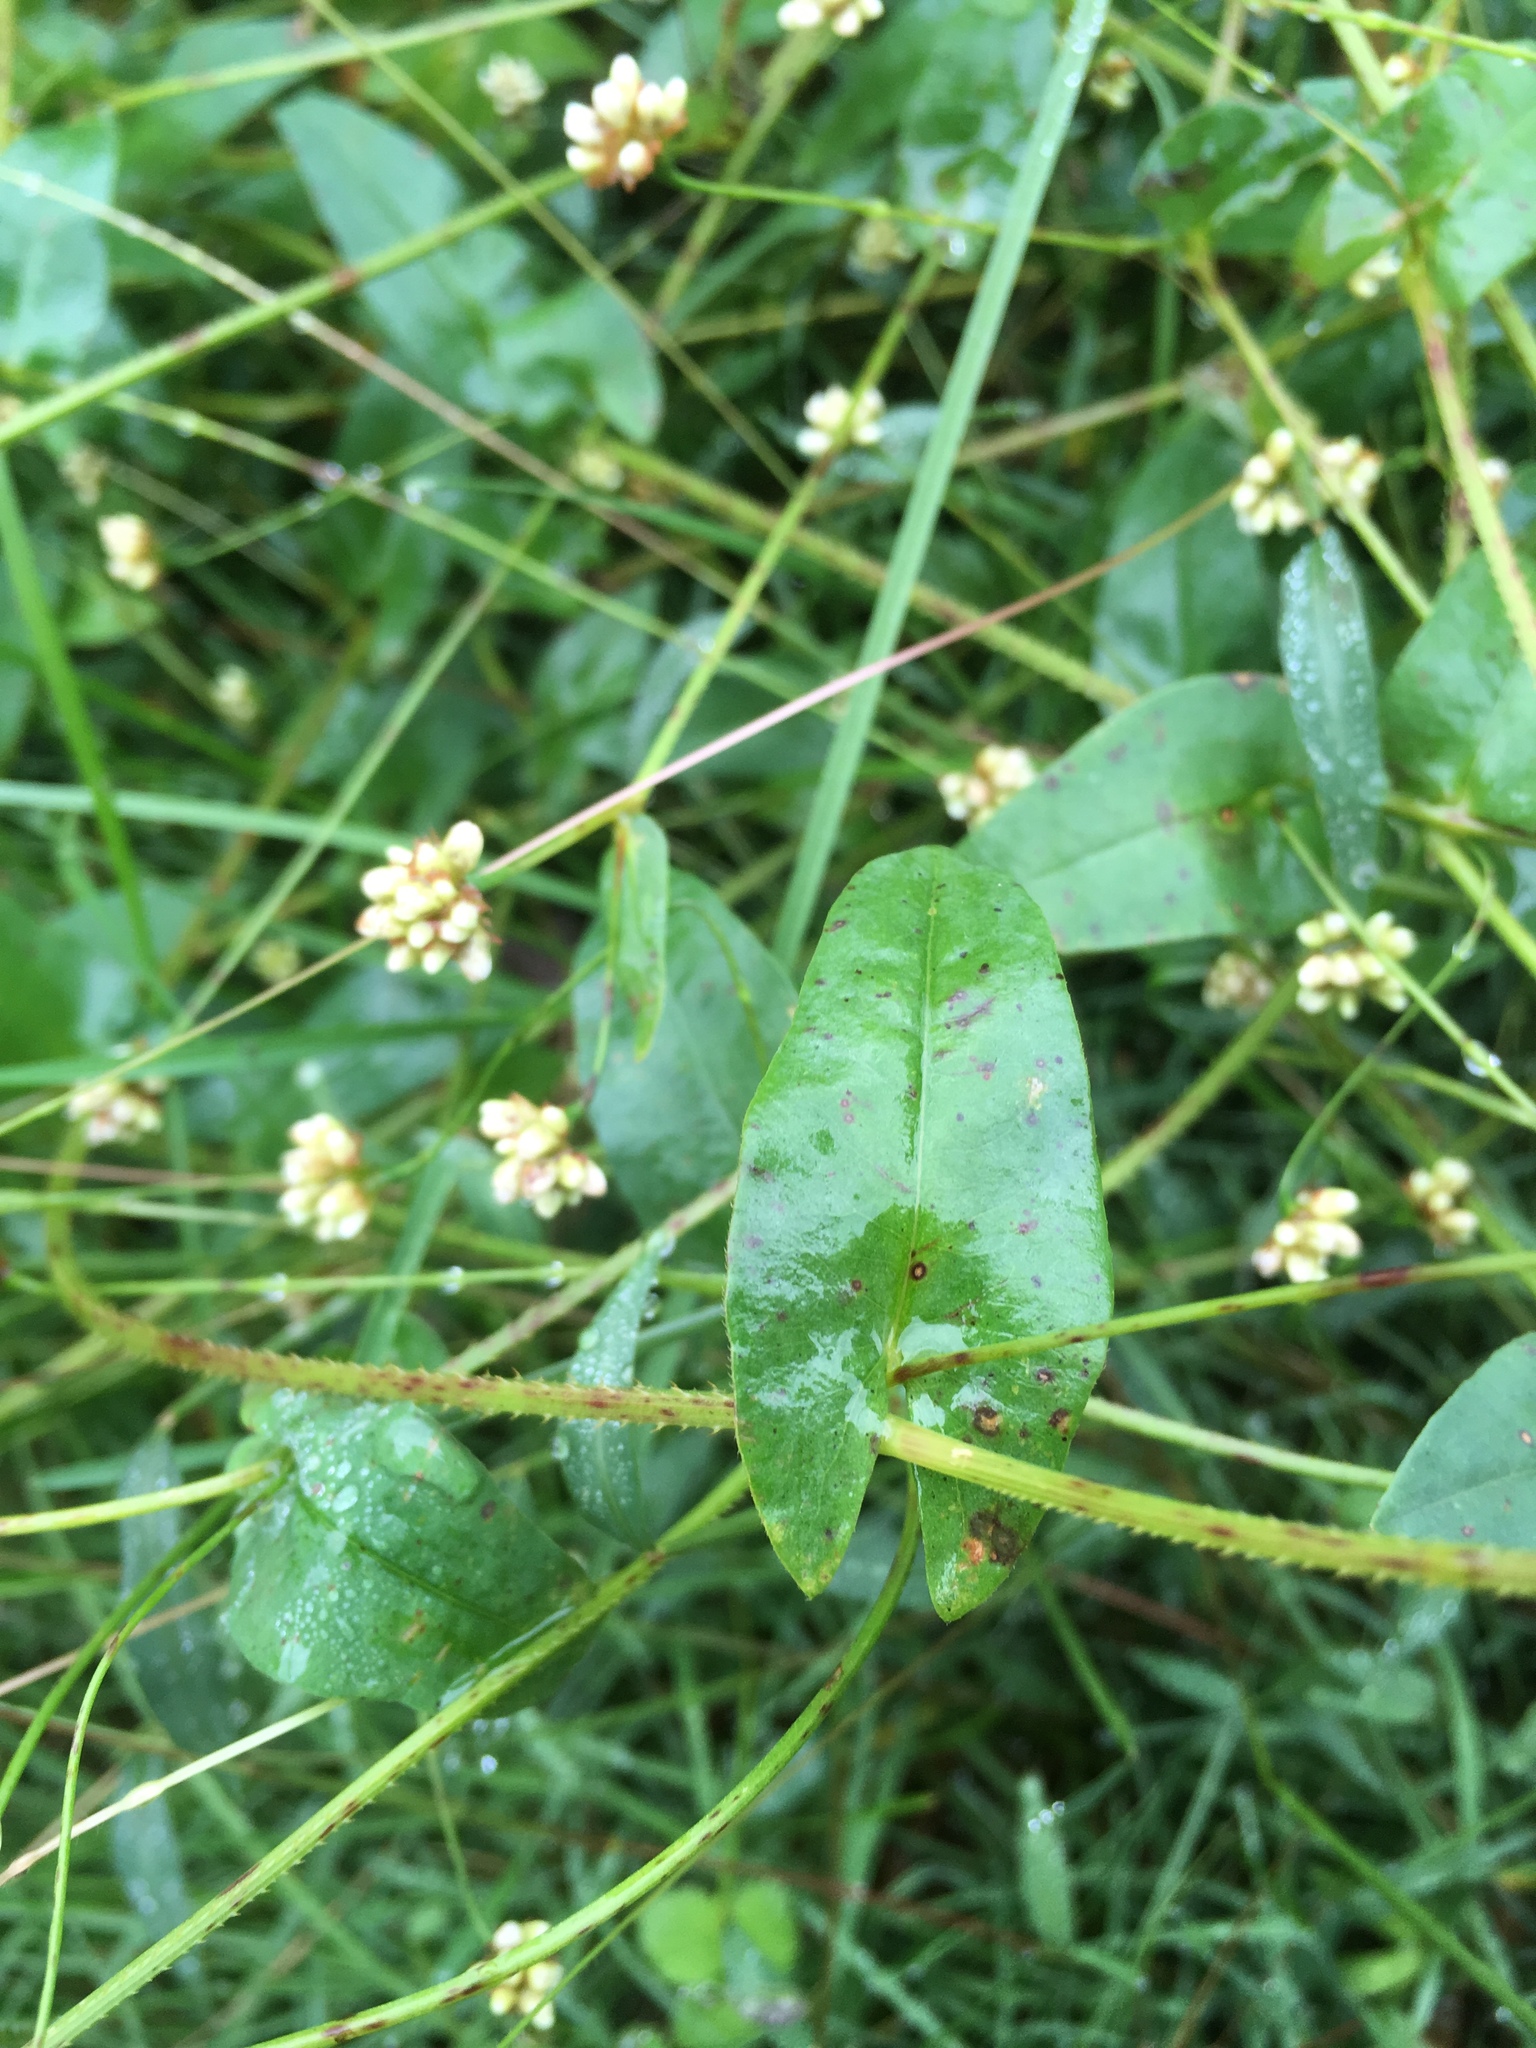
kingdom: Plantae
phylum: Tracheophyta
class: Magnoliopsida
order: Caryophyllales
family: Polygonaceae
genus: Persicaria
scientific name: Persicaria sagittata
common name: American tearthumb
